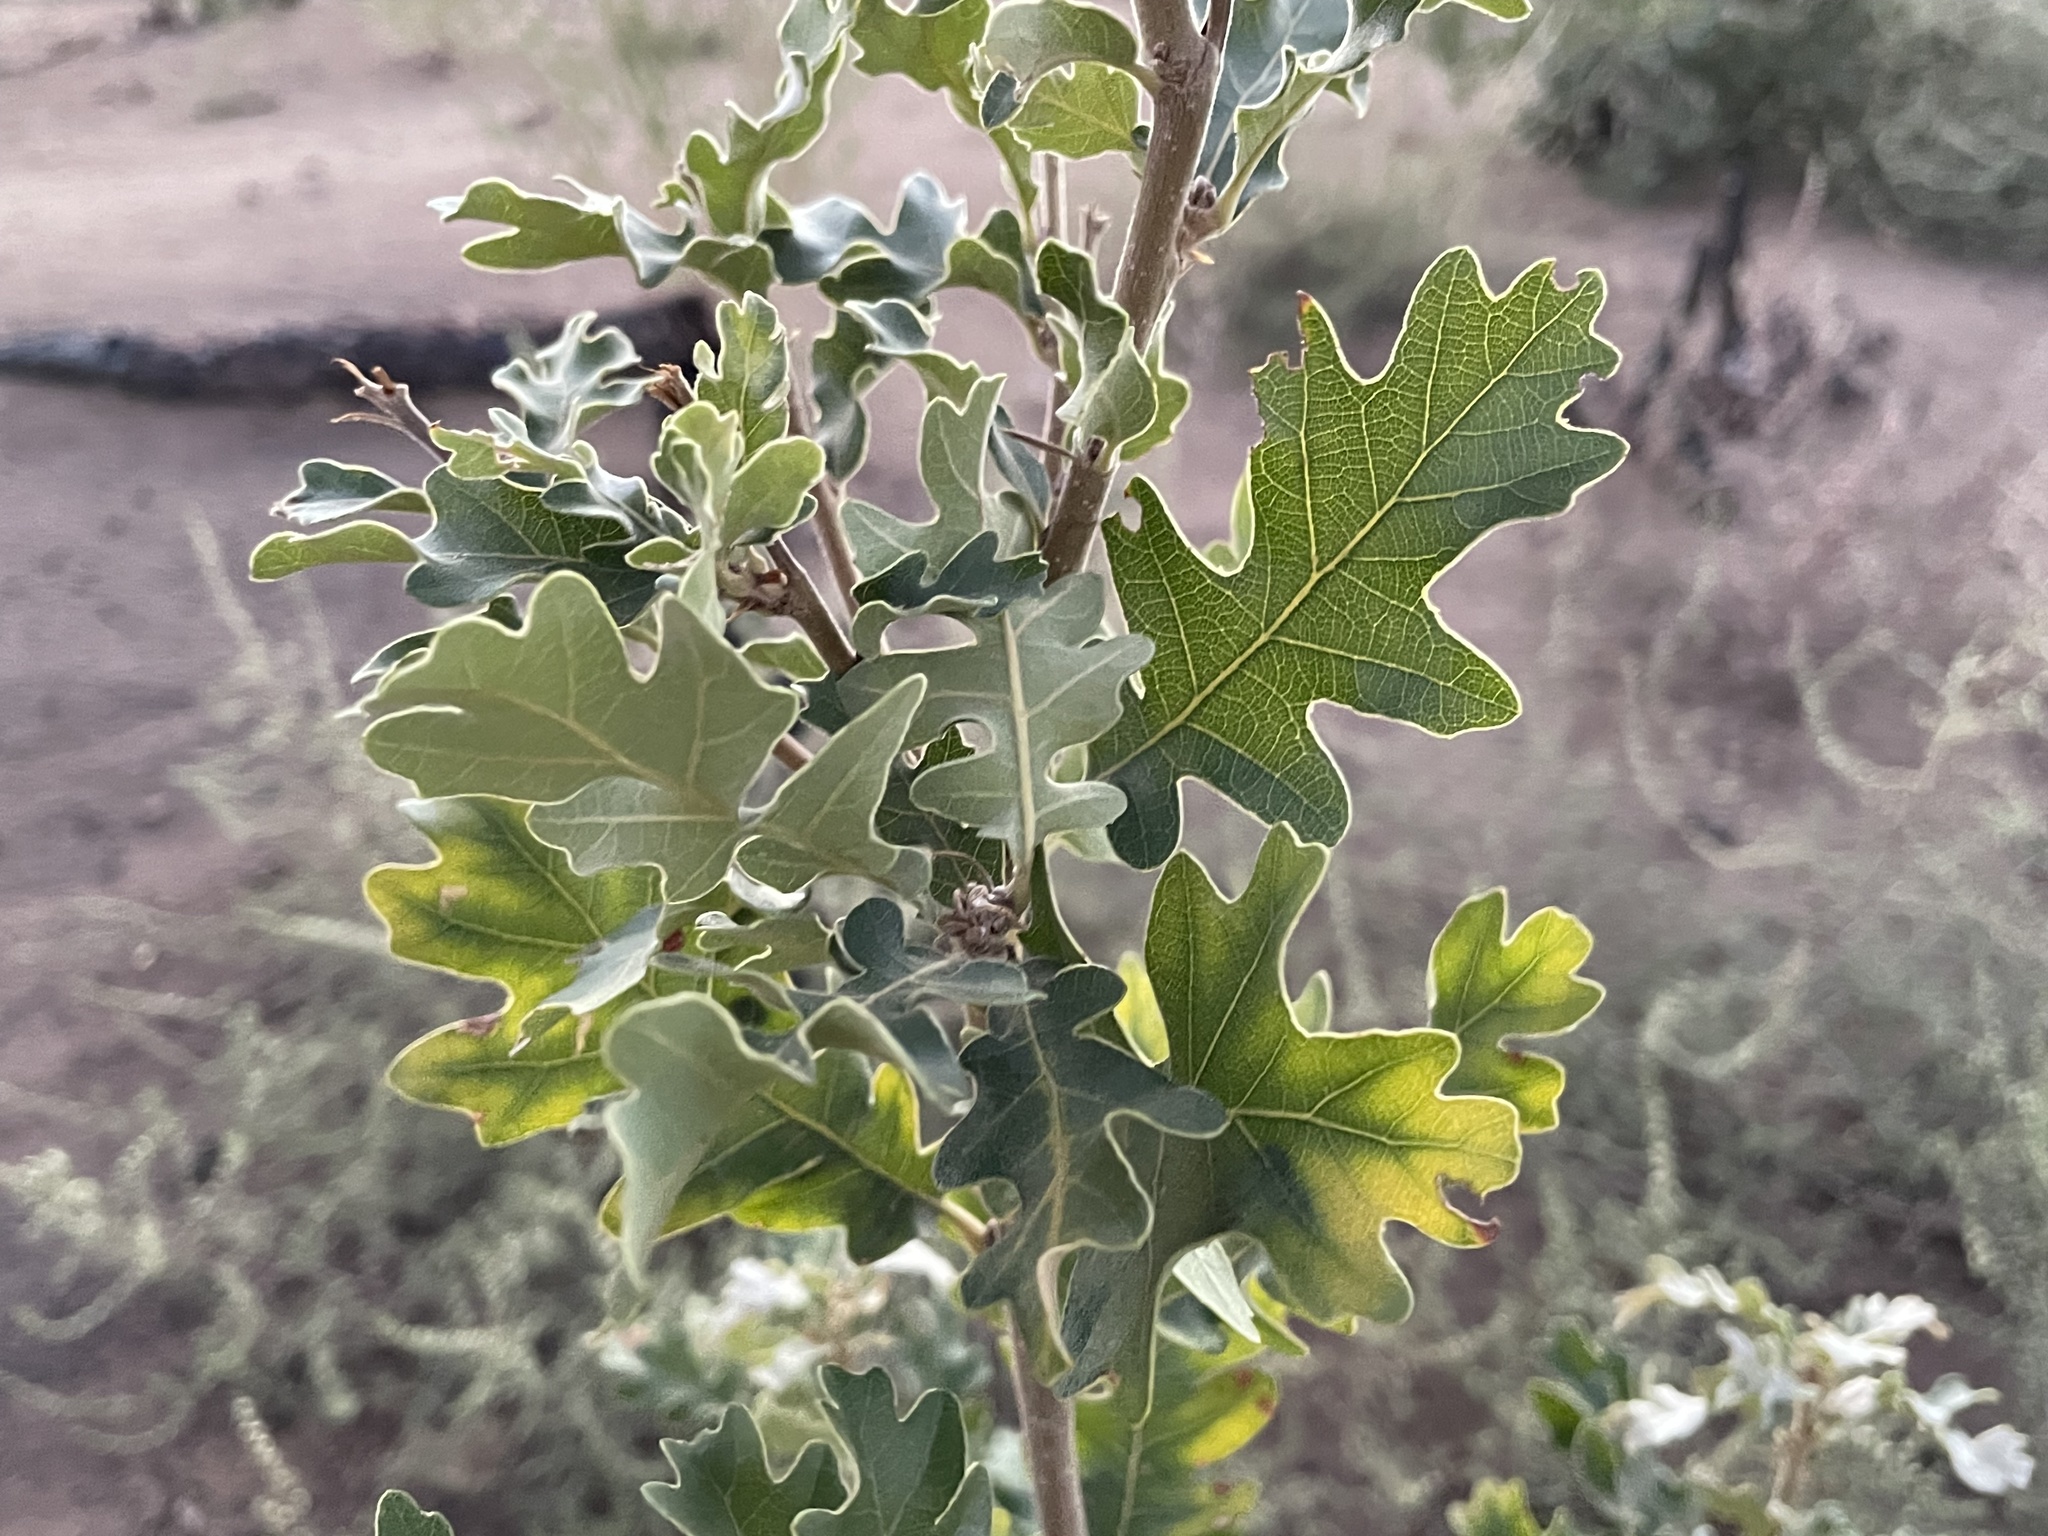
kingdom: Plantae
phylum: Tracheophyta
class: Magnoliopsida
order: Fagales
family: Fagaceae
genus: Quercus
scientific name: Quercus gambelii
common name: Gambel oak
